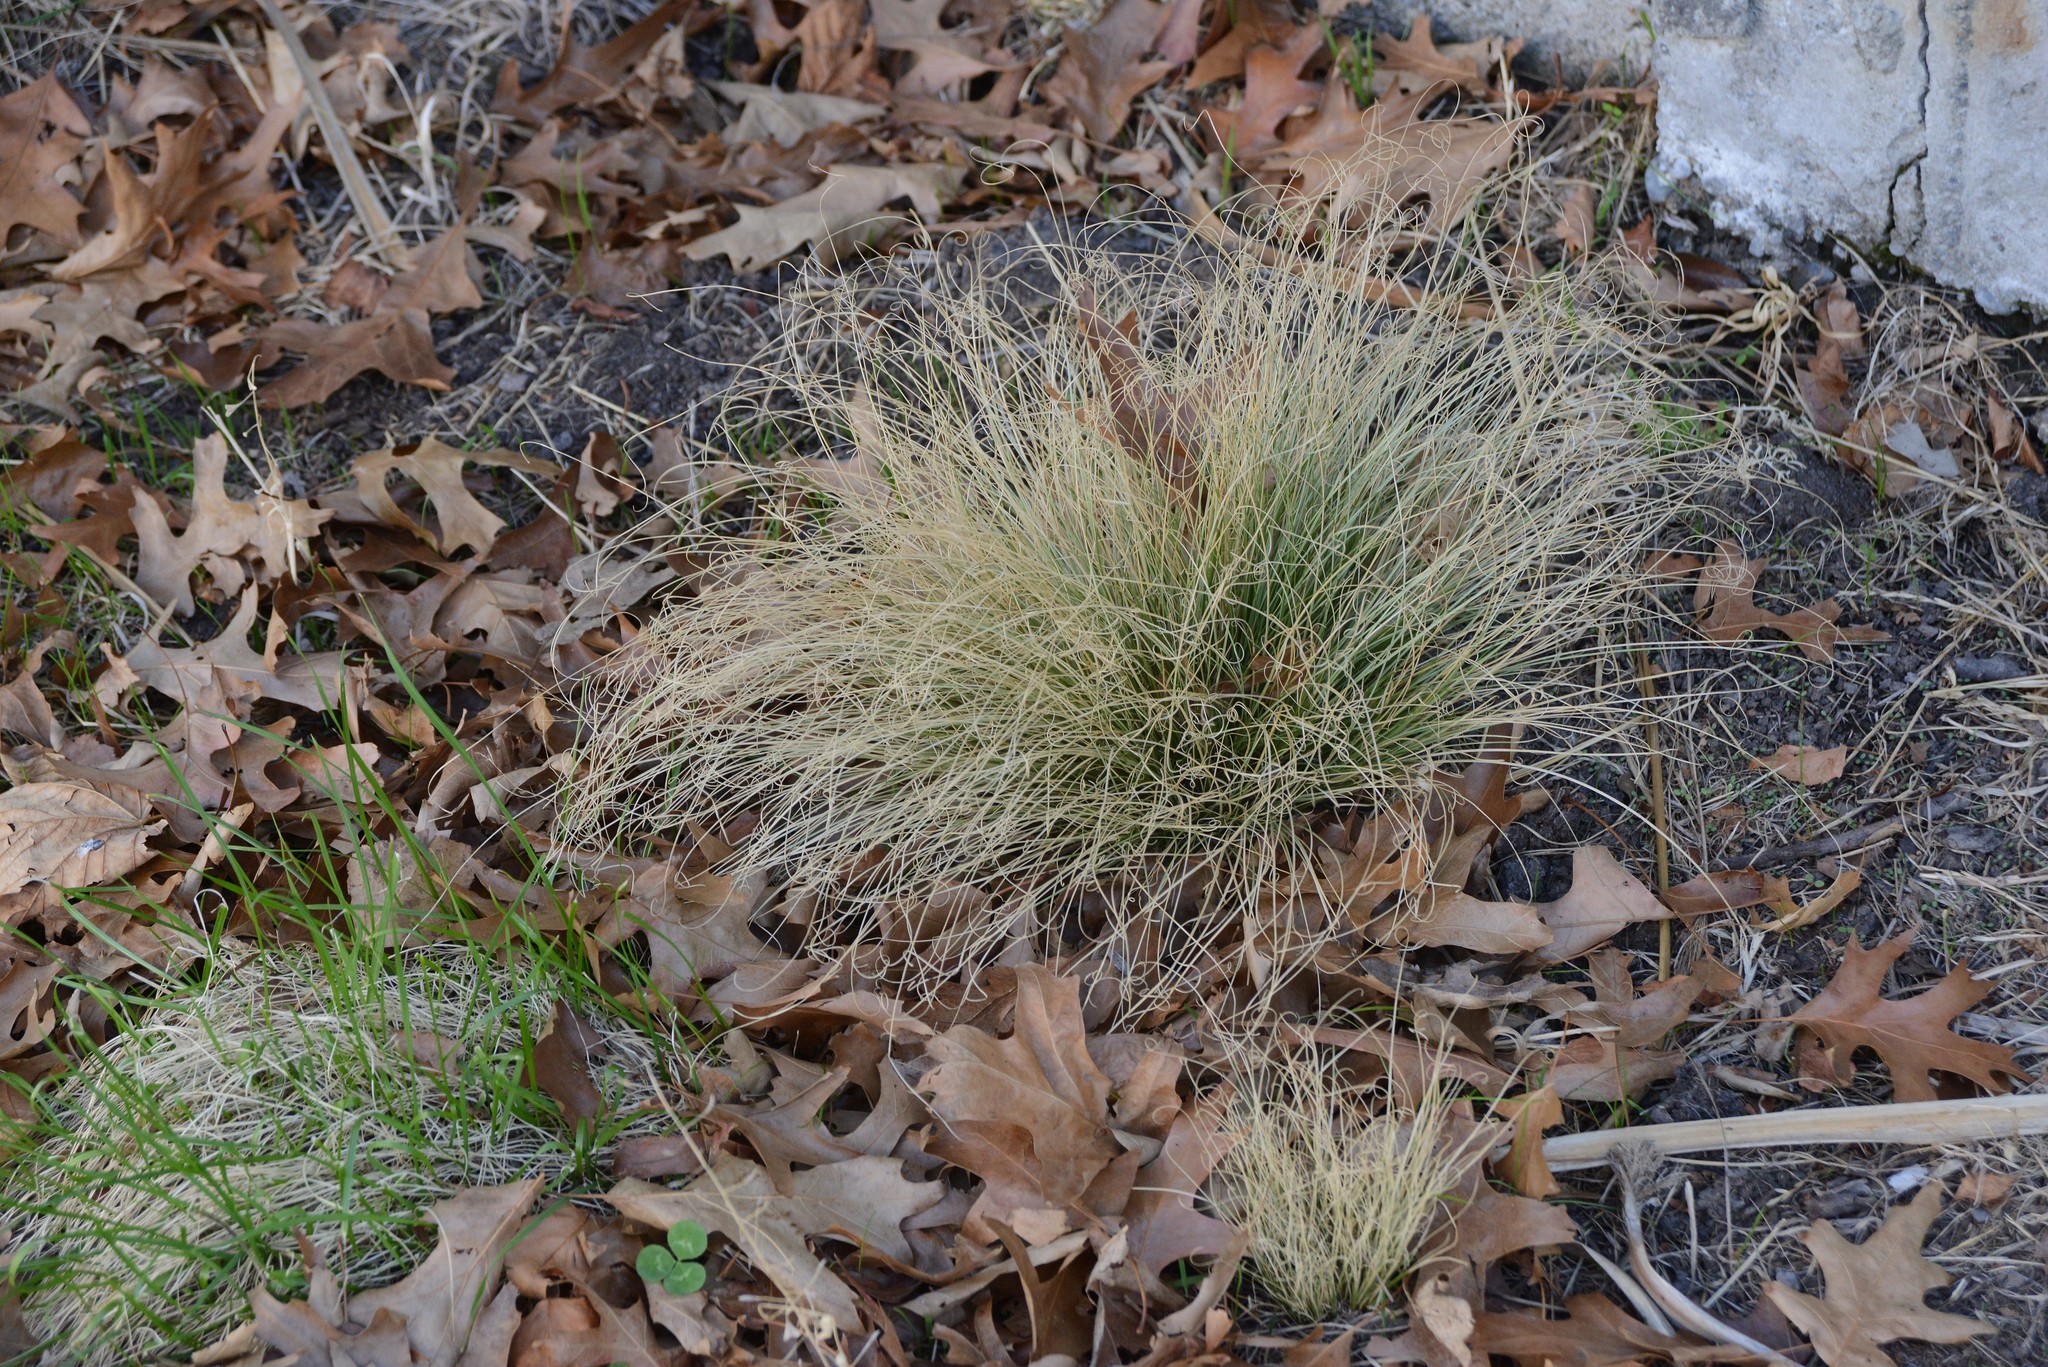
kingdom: Plantae
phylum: Tracheophyta
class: Liliopsida
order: Poales
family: Cyperaceae
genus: Carex
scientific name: Carex comans
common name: Longwood tussock
